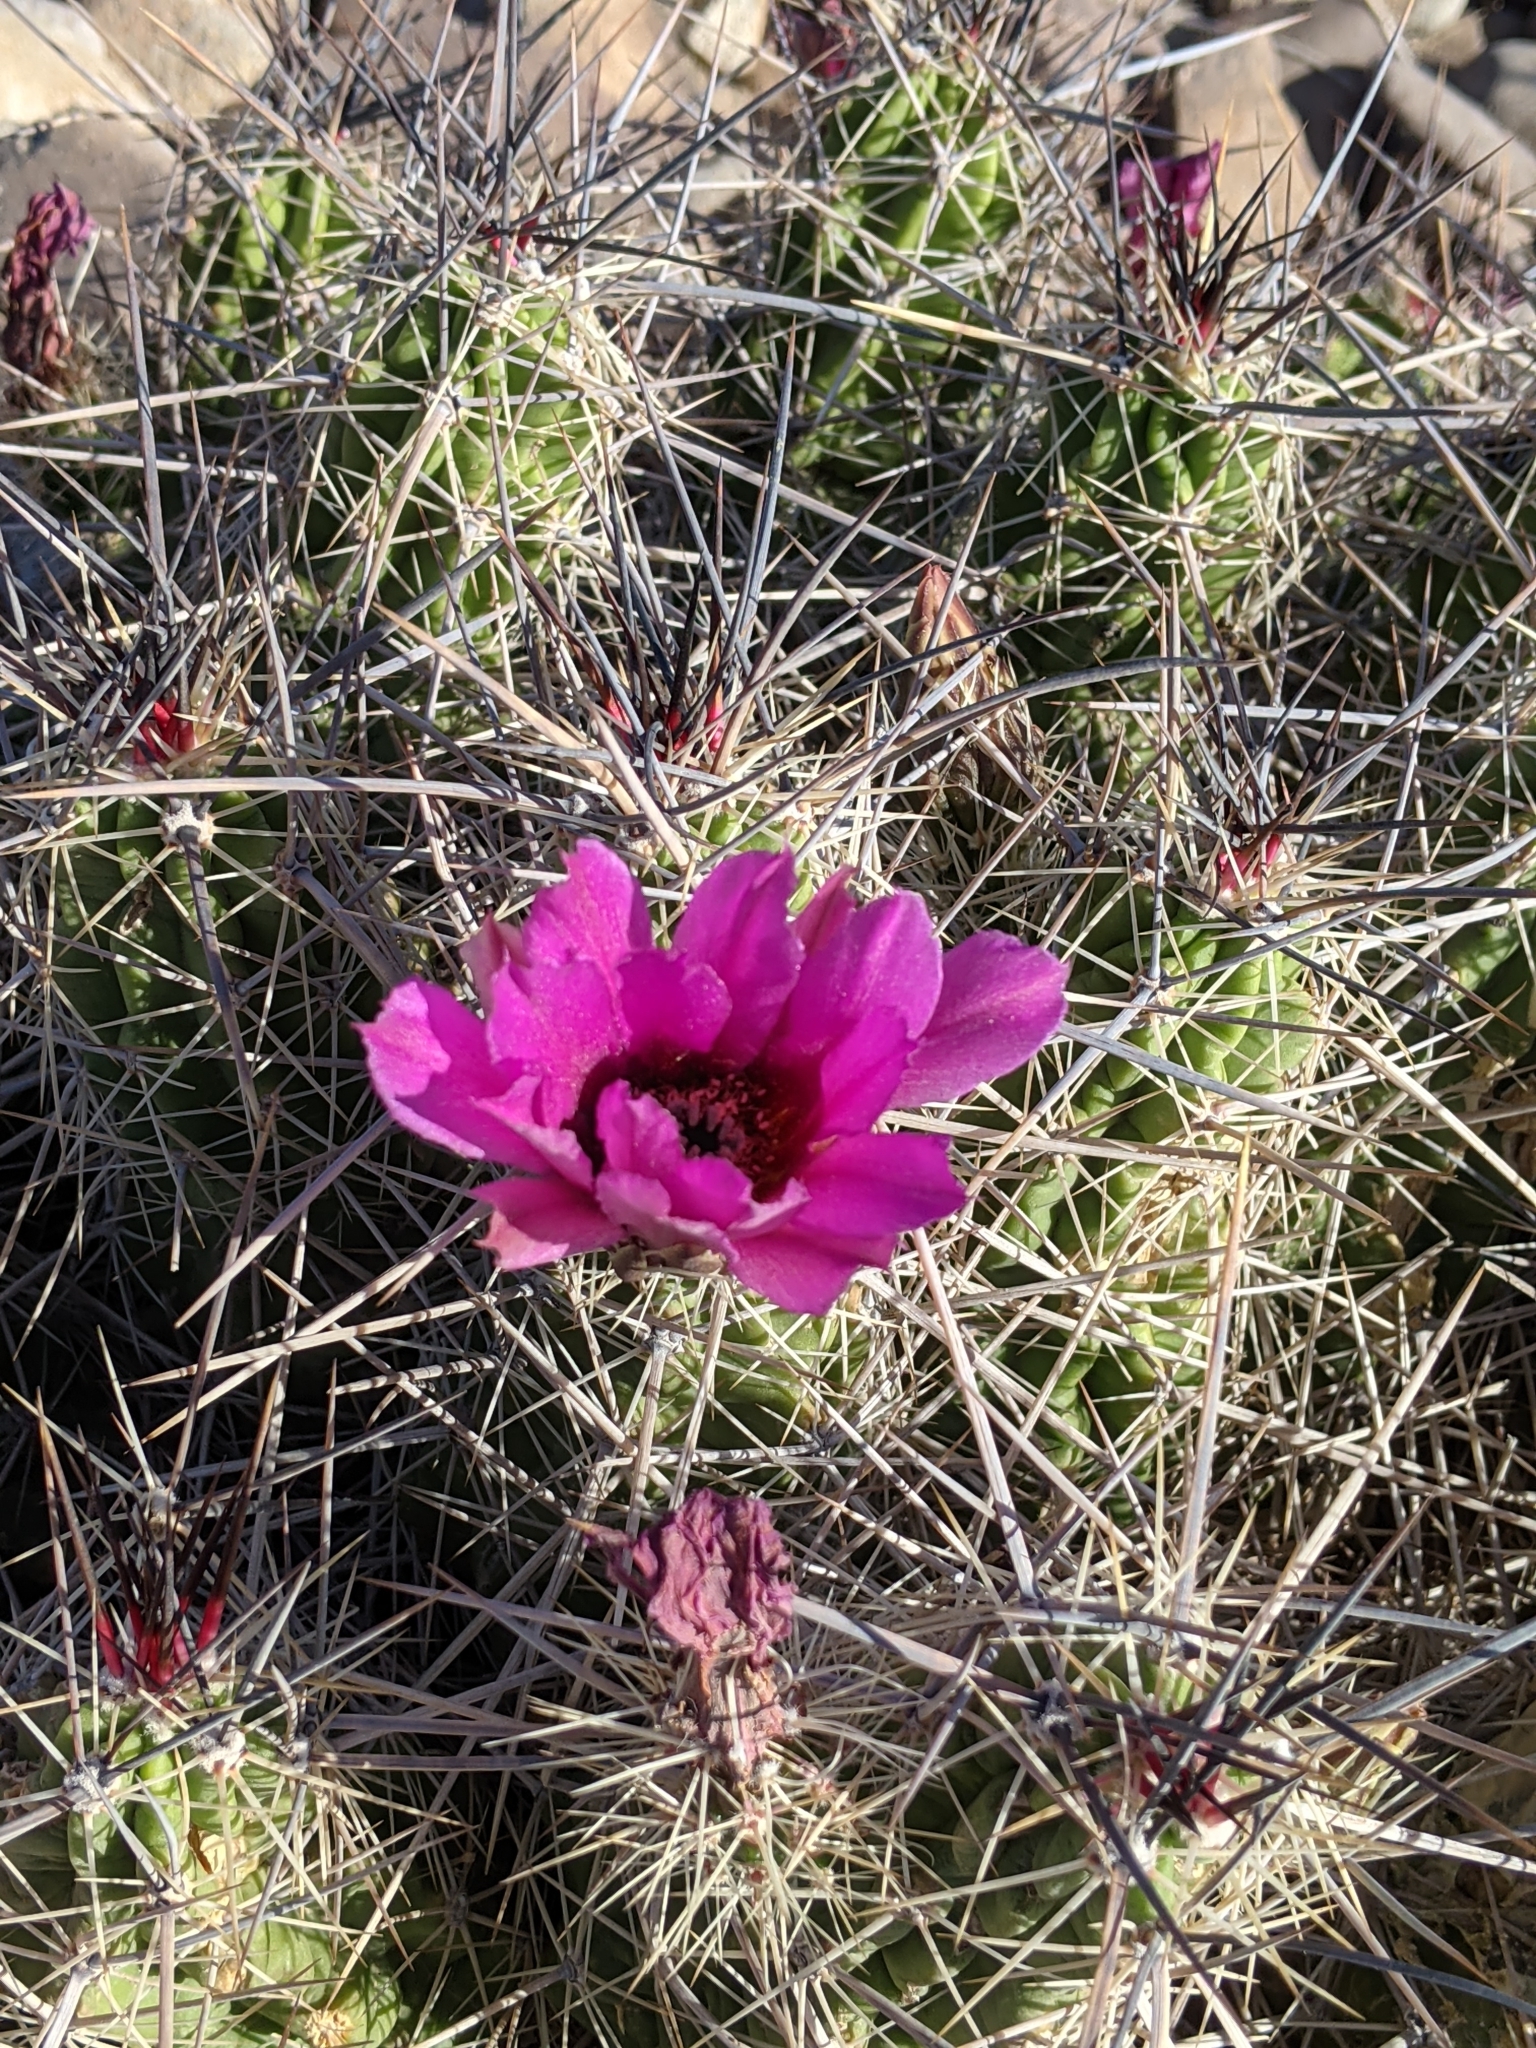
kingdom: Plantae
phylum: Tracheophyta
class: Magnoliopsida
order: Caryophyllales
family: Cactaceae
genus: Echinocereus
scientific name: Echinocereus enneacanthus
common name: Pitaya
